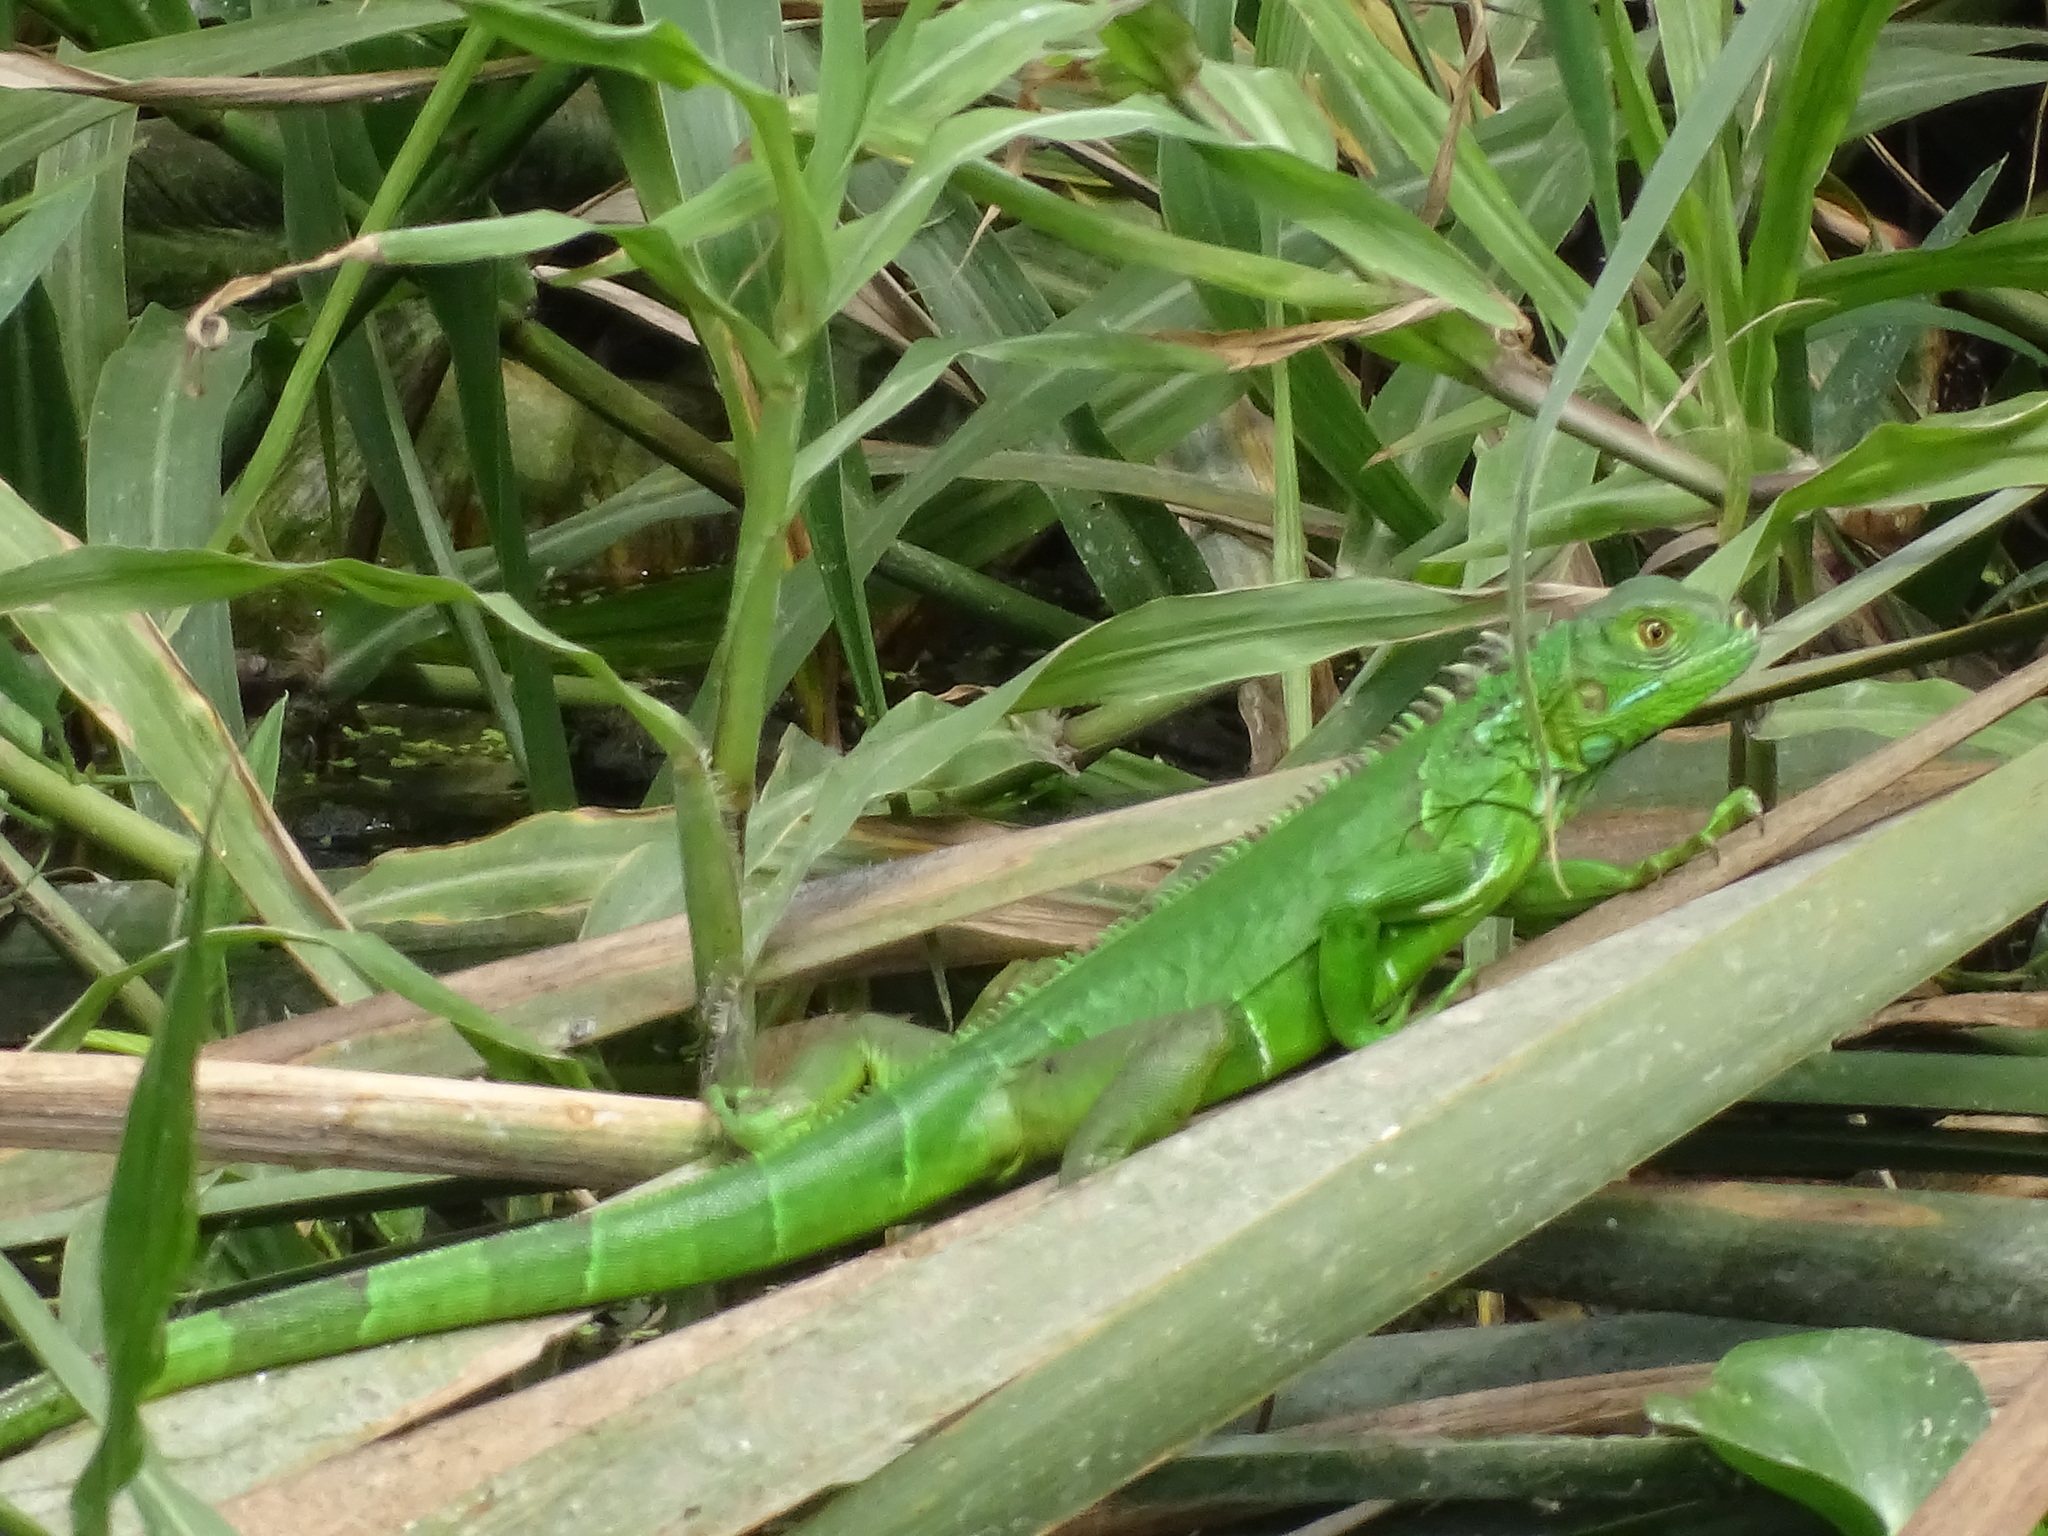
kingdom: Animalia
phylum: Chordata
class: Squamata
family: Iguanidae
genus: Iguana
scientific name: Iguana iguana
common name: Green iguana
